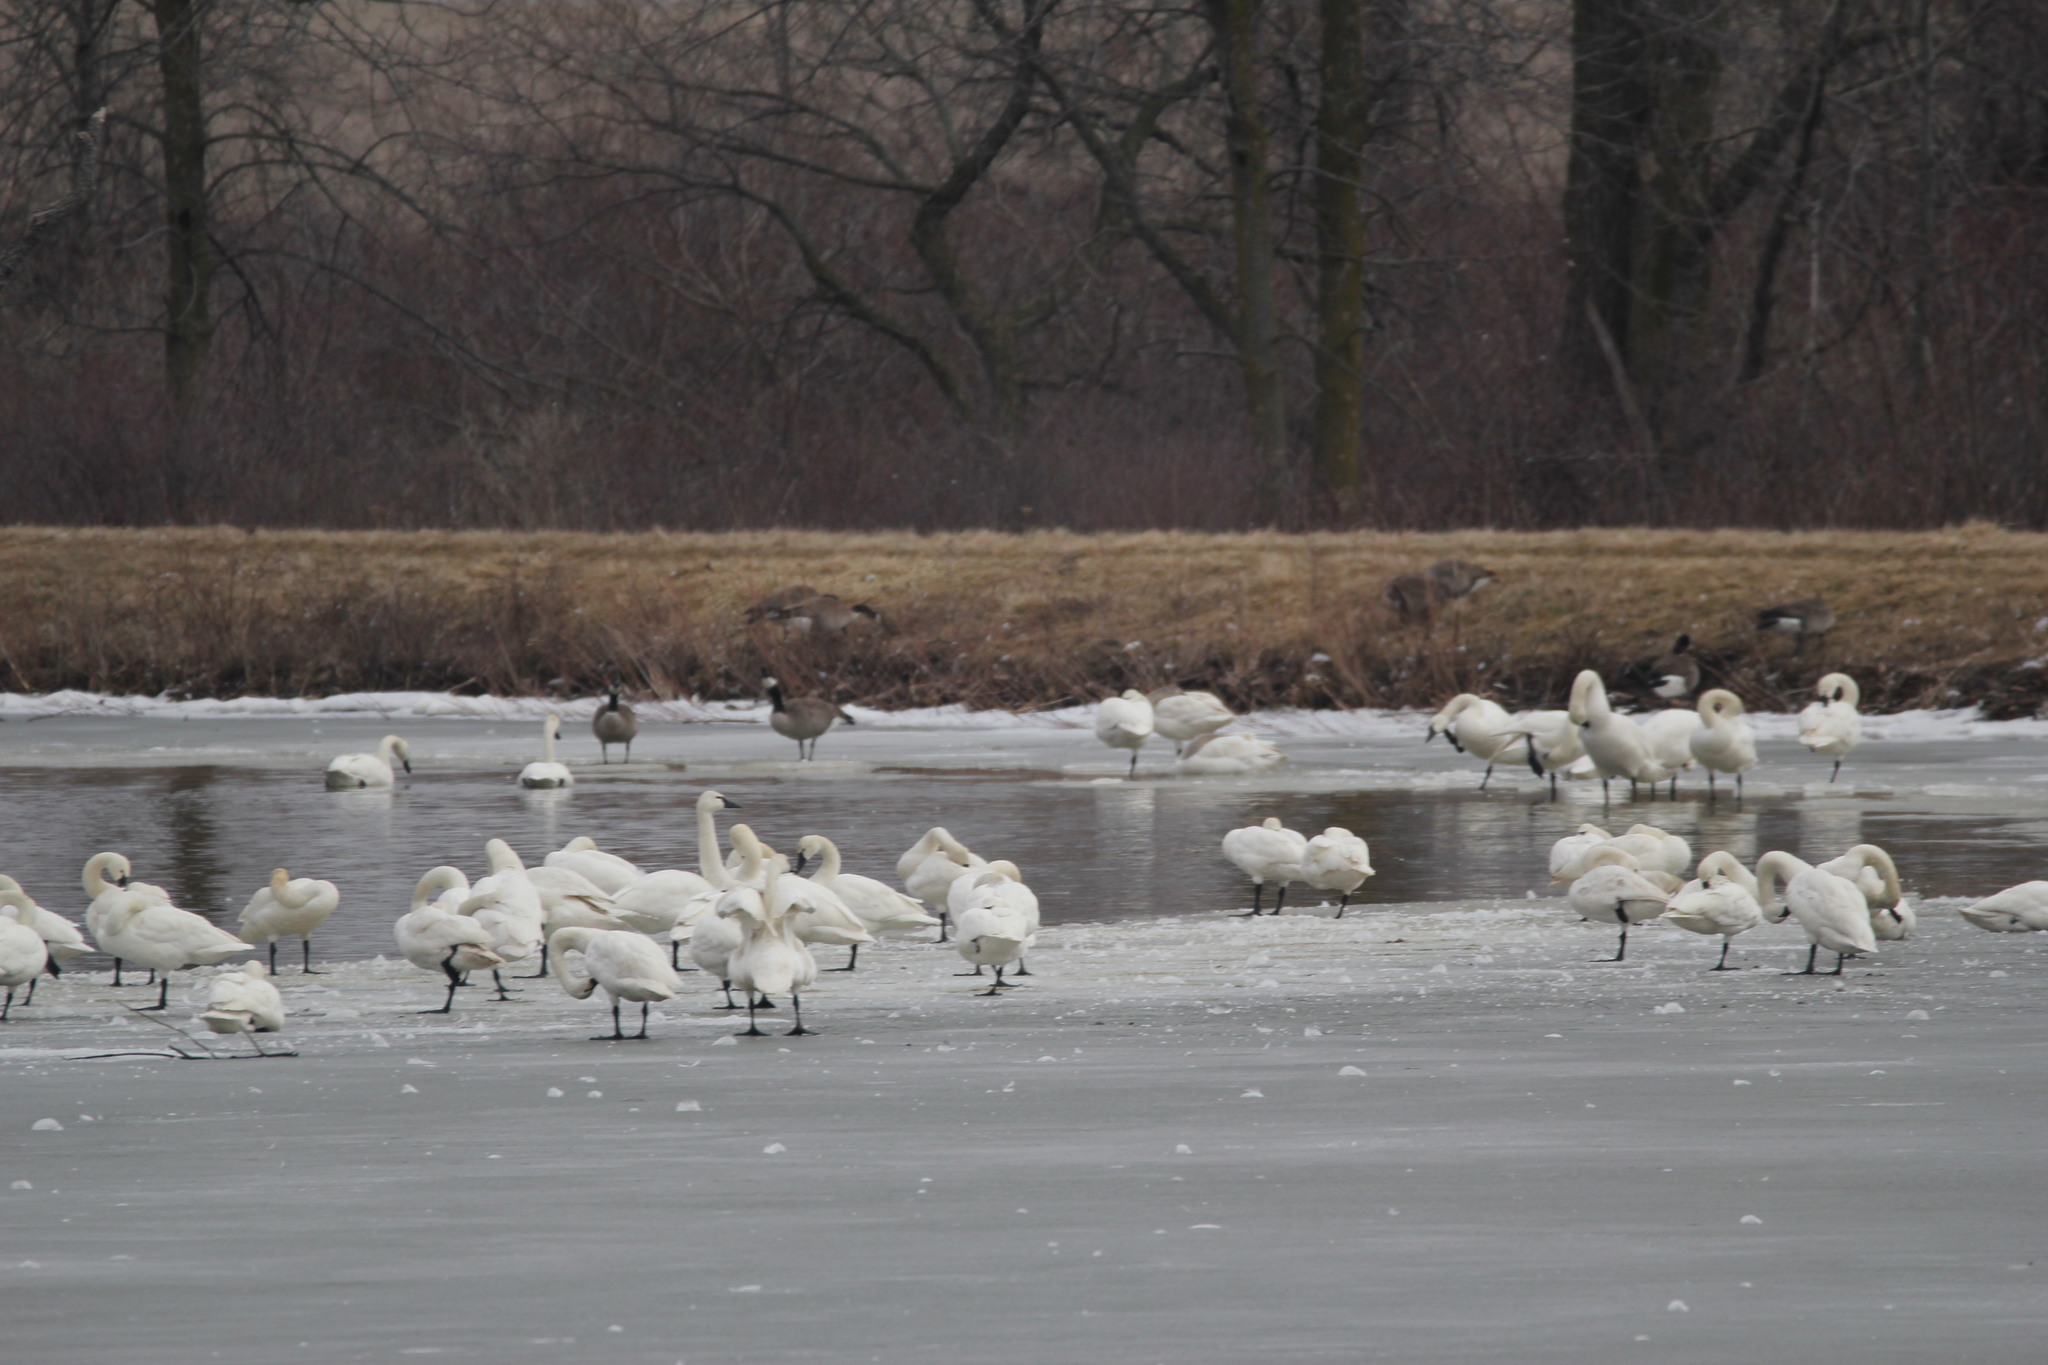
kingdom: Animalia
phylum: Chordata
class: Aves
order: Anseriformes
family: Anatidae
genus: Cygnus
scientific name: Cygnus columbianus
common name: Tundra swan
